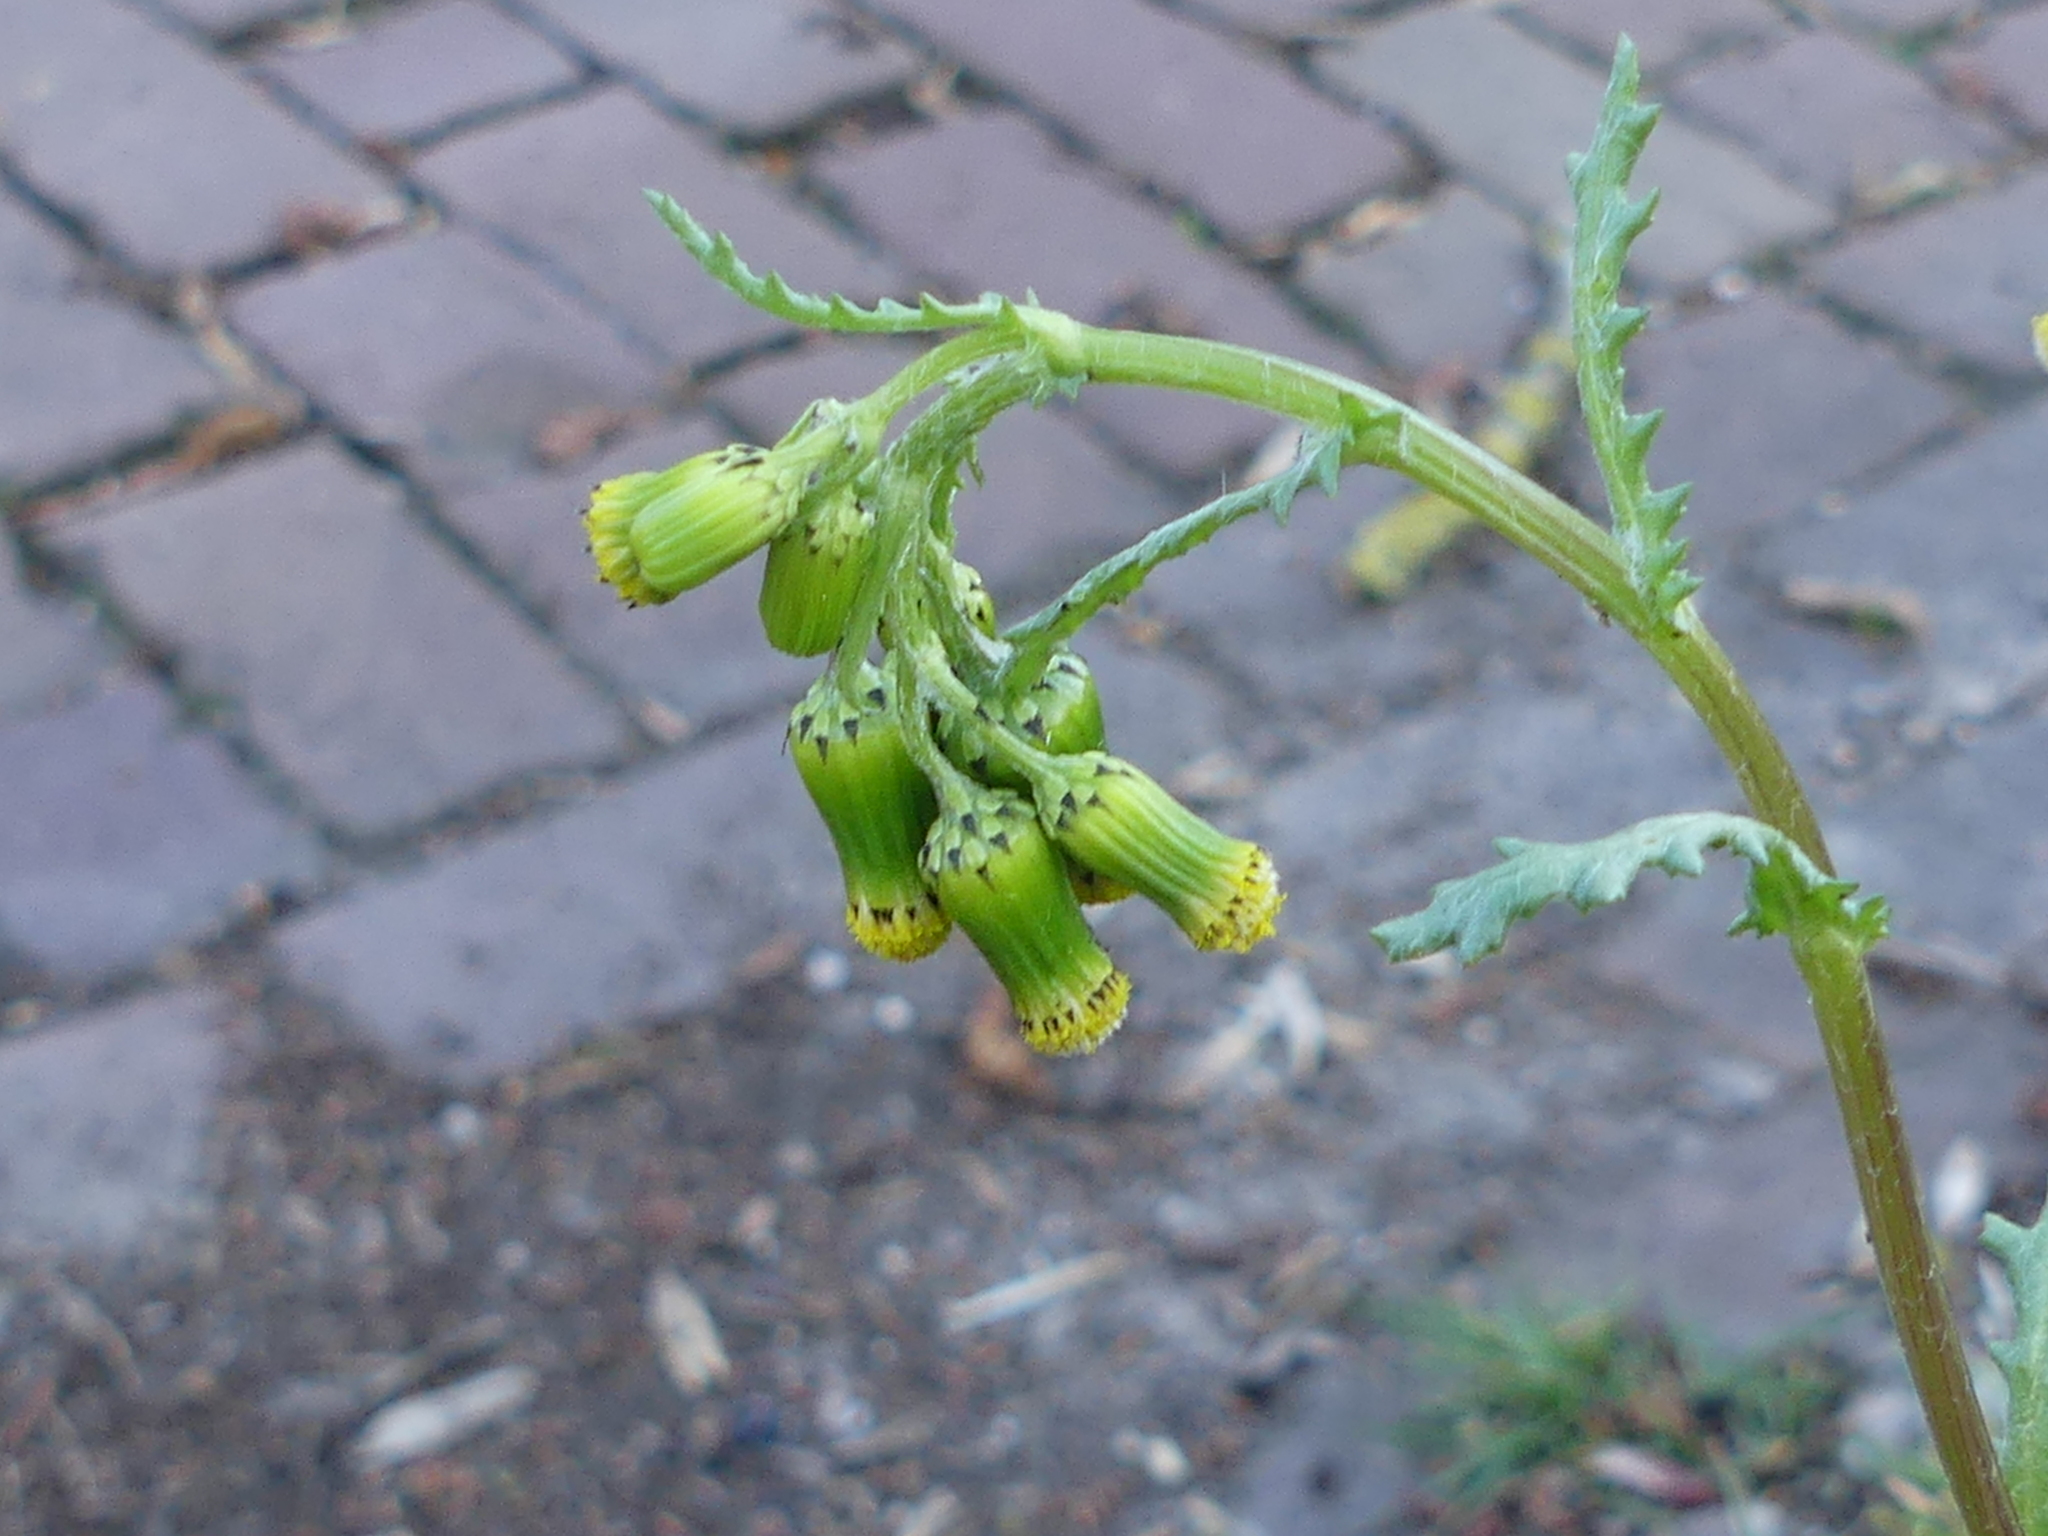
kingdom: Plantae
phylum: Tracheophyta
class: Magnoliopsida
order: Asterales
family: Asteraceae
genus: Senecio
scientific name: Senecio vulgaris
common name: Old-man-in-the-spring
